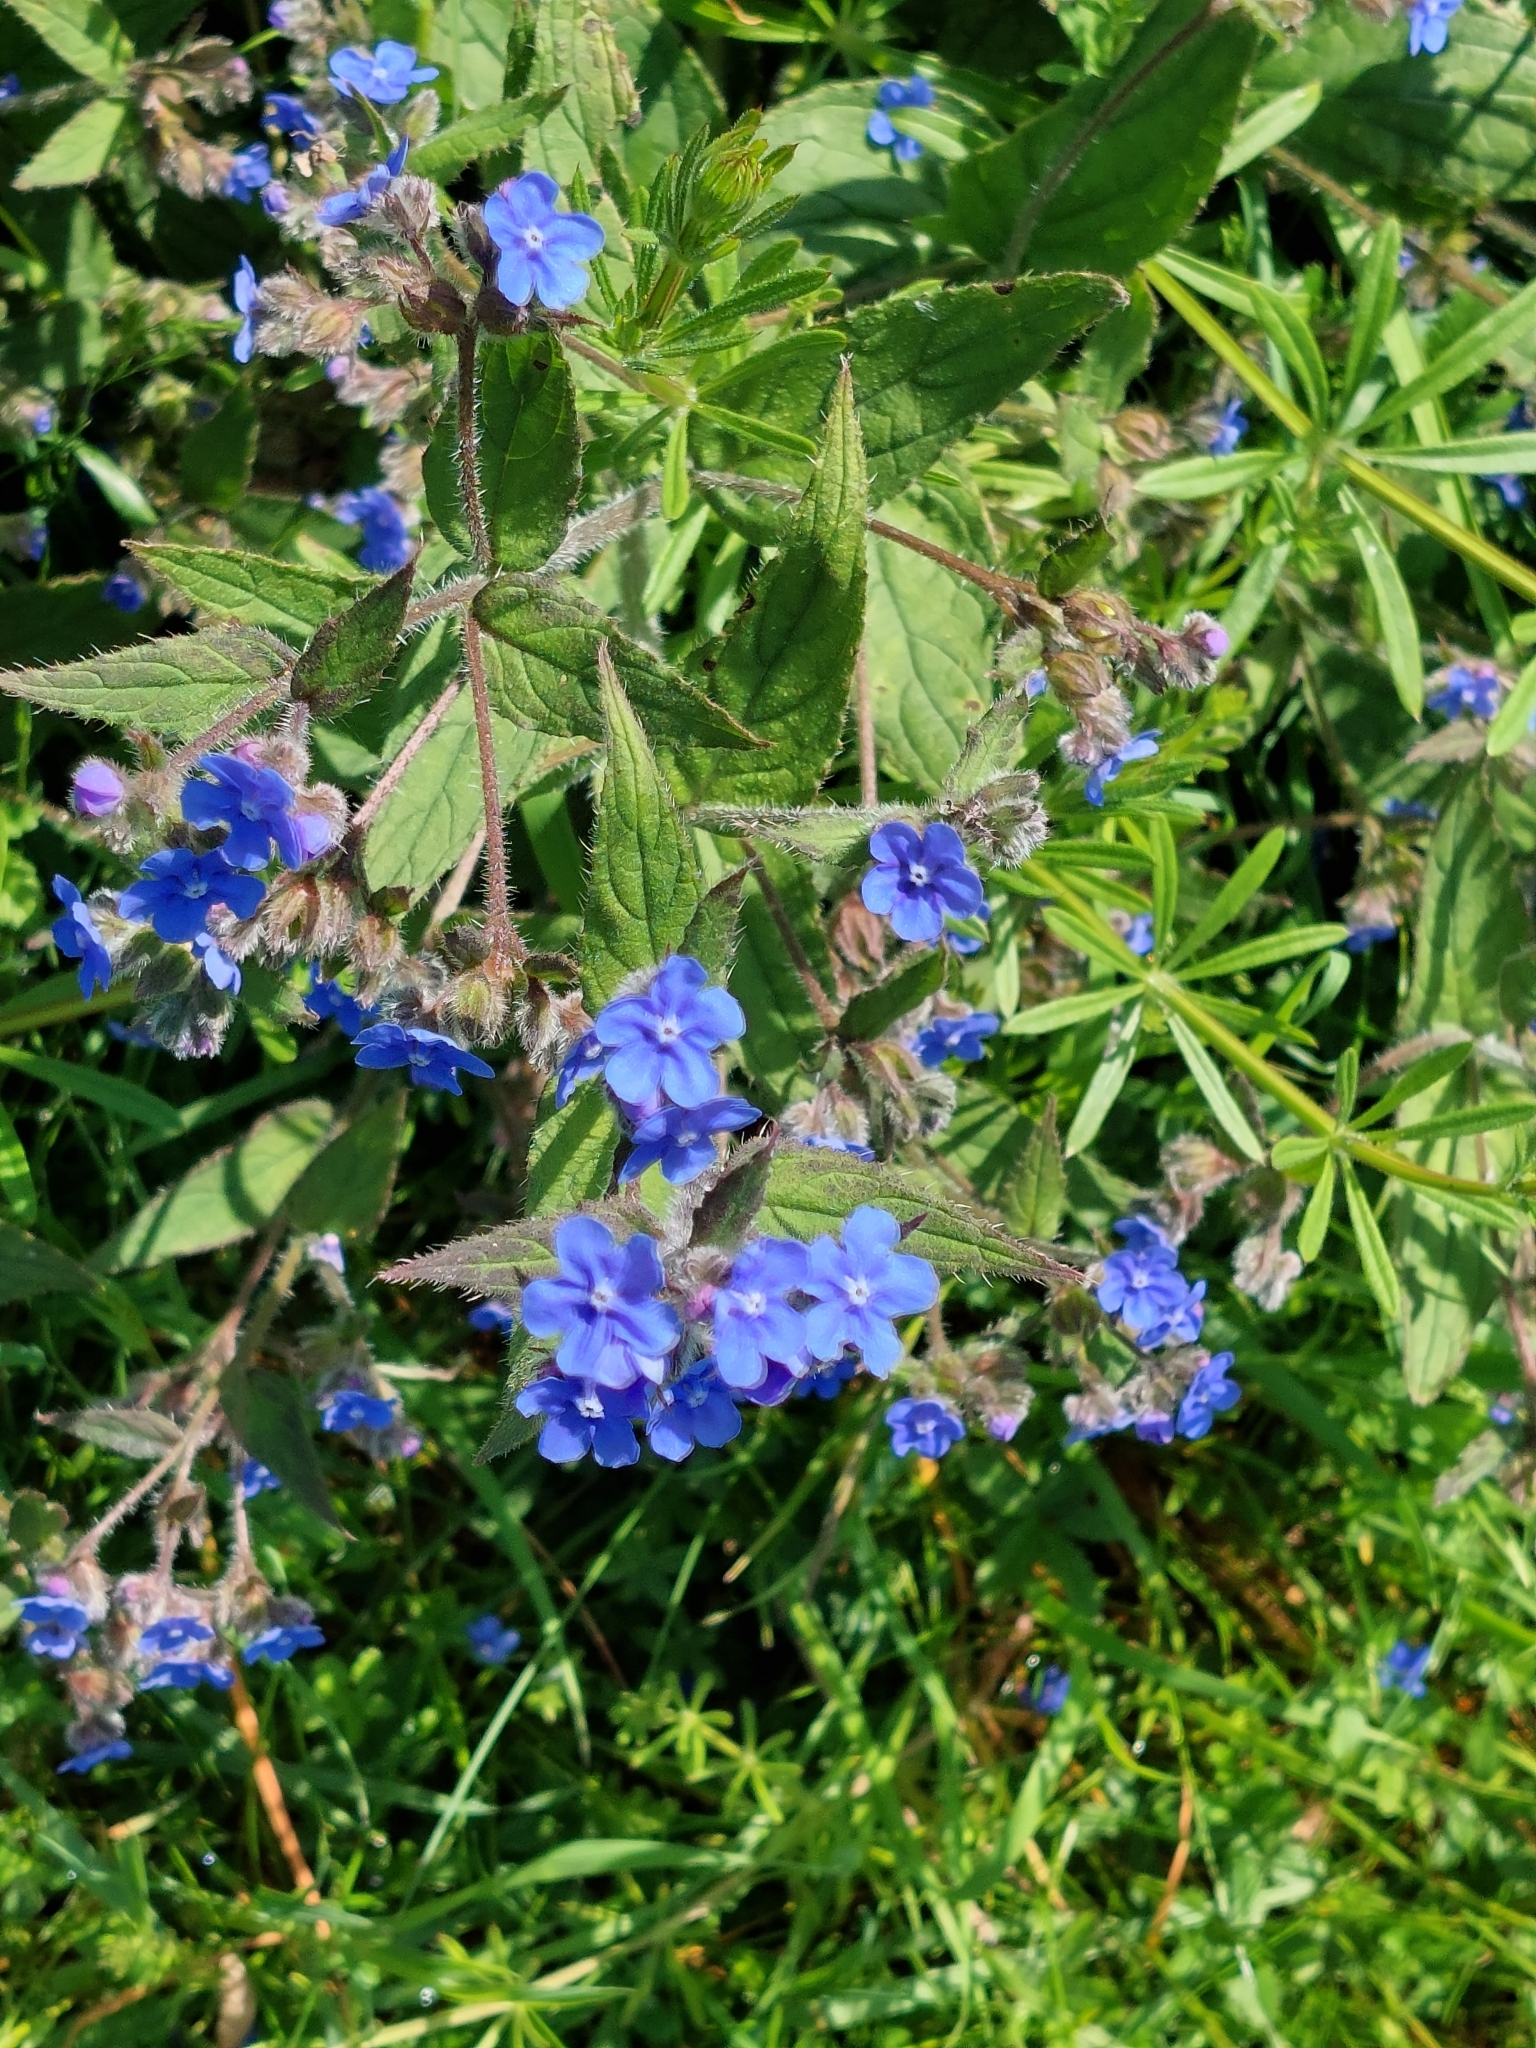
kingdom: Plantae
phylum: Tracheophyta
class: Magnoliopsida
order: Boraginales
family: Boraginaceae
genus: Pentaglottis
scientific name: Pentaglottis sempervirens
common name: Green alkanet
